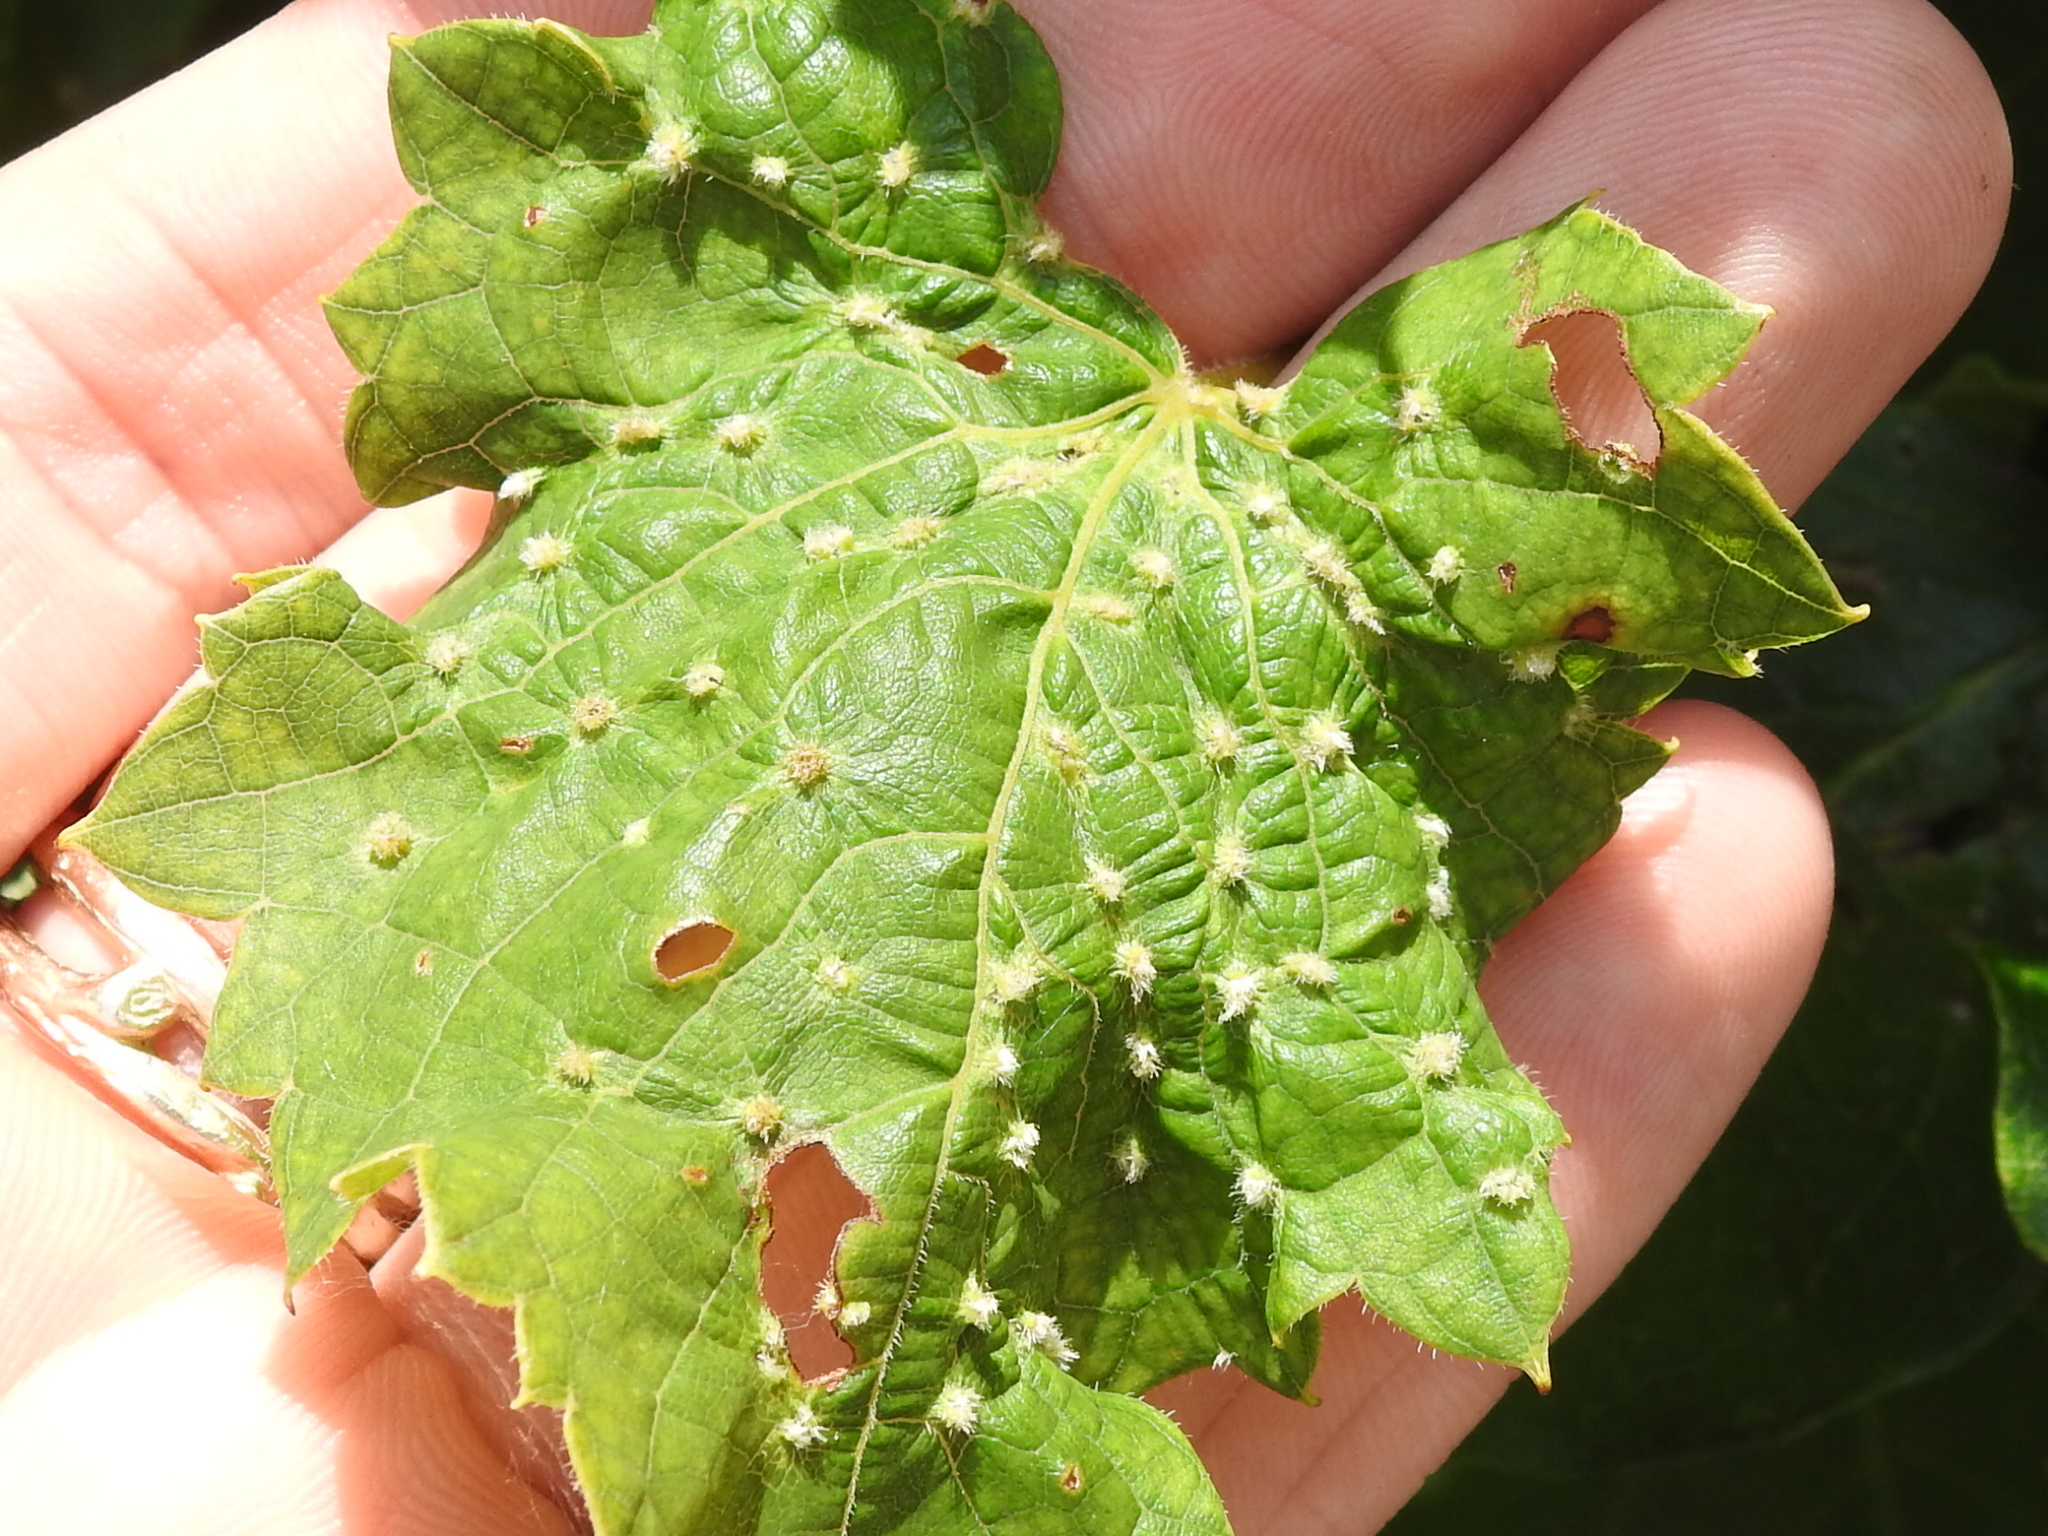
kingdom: Animalia
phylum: Arthropoda
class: Insecta
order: Hemiptera
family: Phylloxeridae
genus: Daktulosphaira
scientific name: Daktulosphaira vitifoliae
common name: Grape phylloxera
